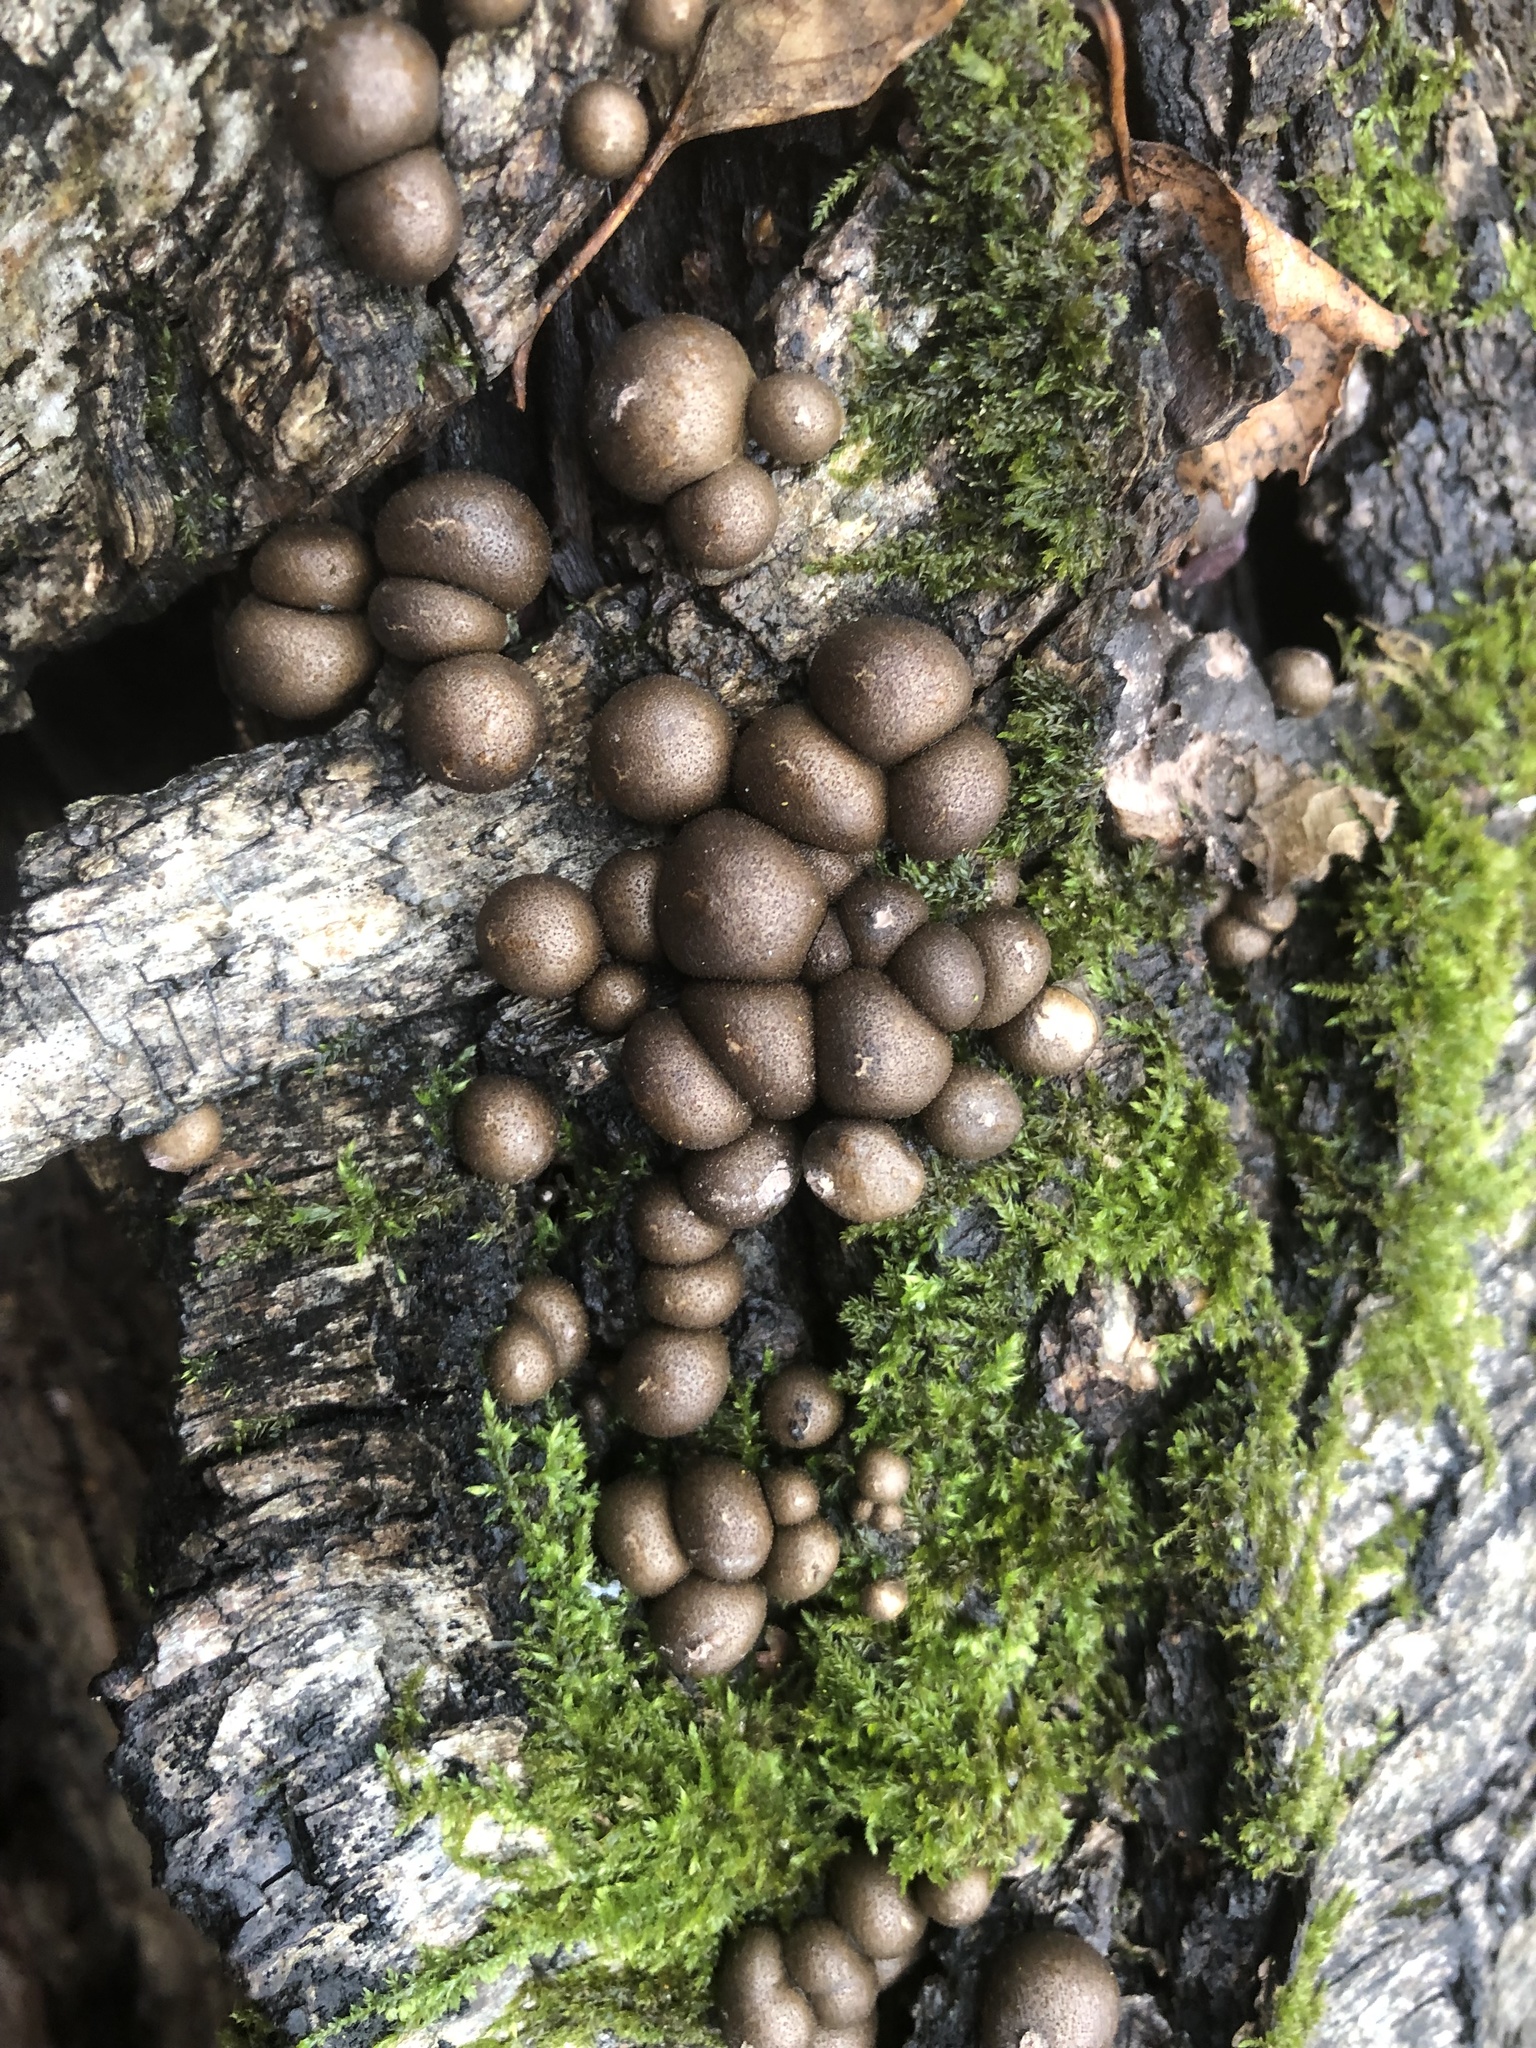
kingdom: Protozoa
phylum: Mycetozoa
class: Myxomycetes
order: Cribrariales
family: Tubiferaceae
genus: Lycogala
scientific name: Lycogala epidendrum
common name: Wolf's milk
